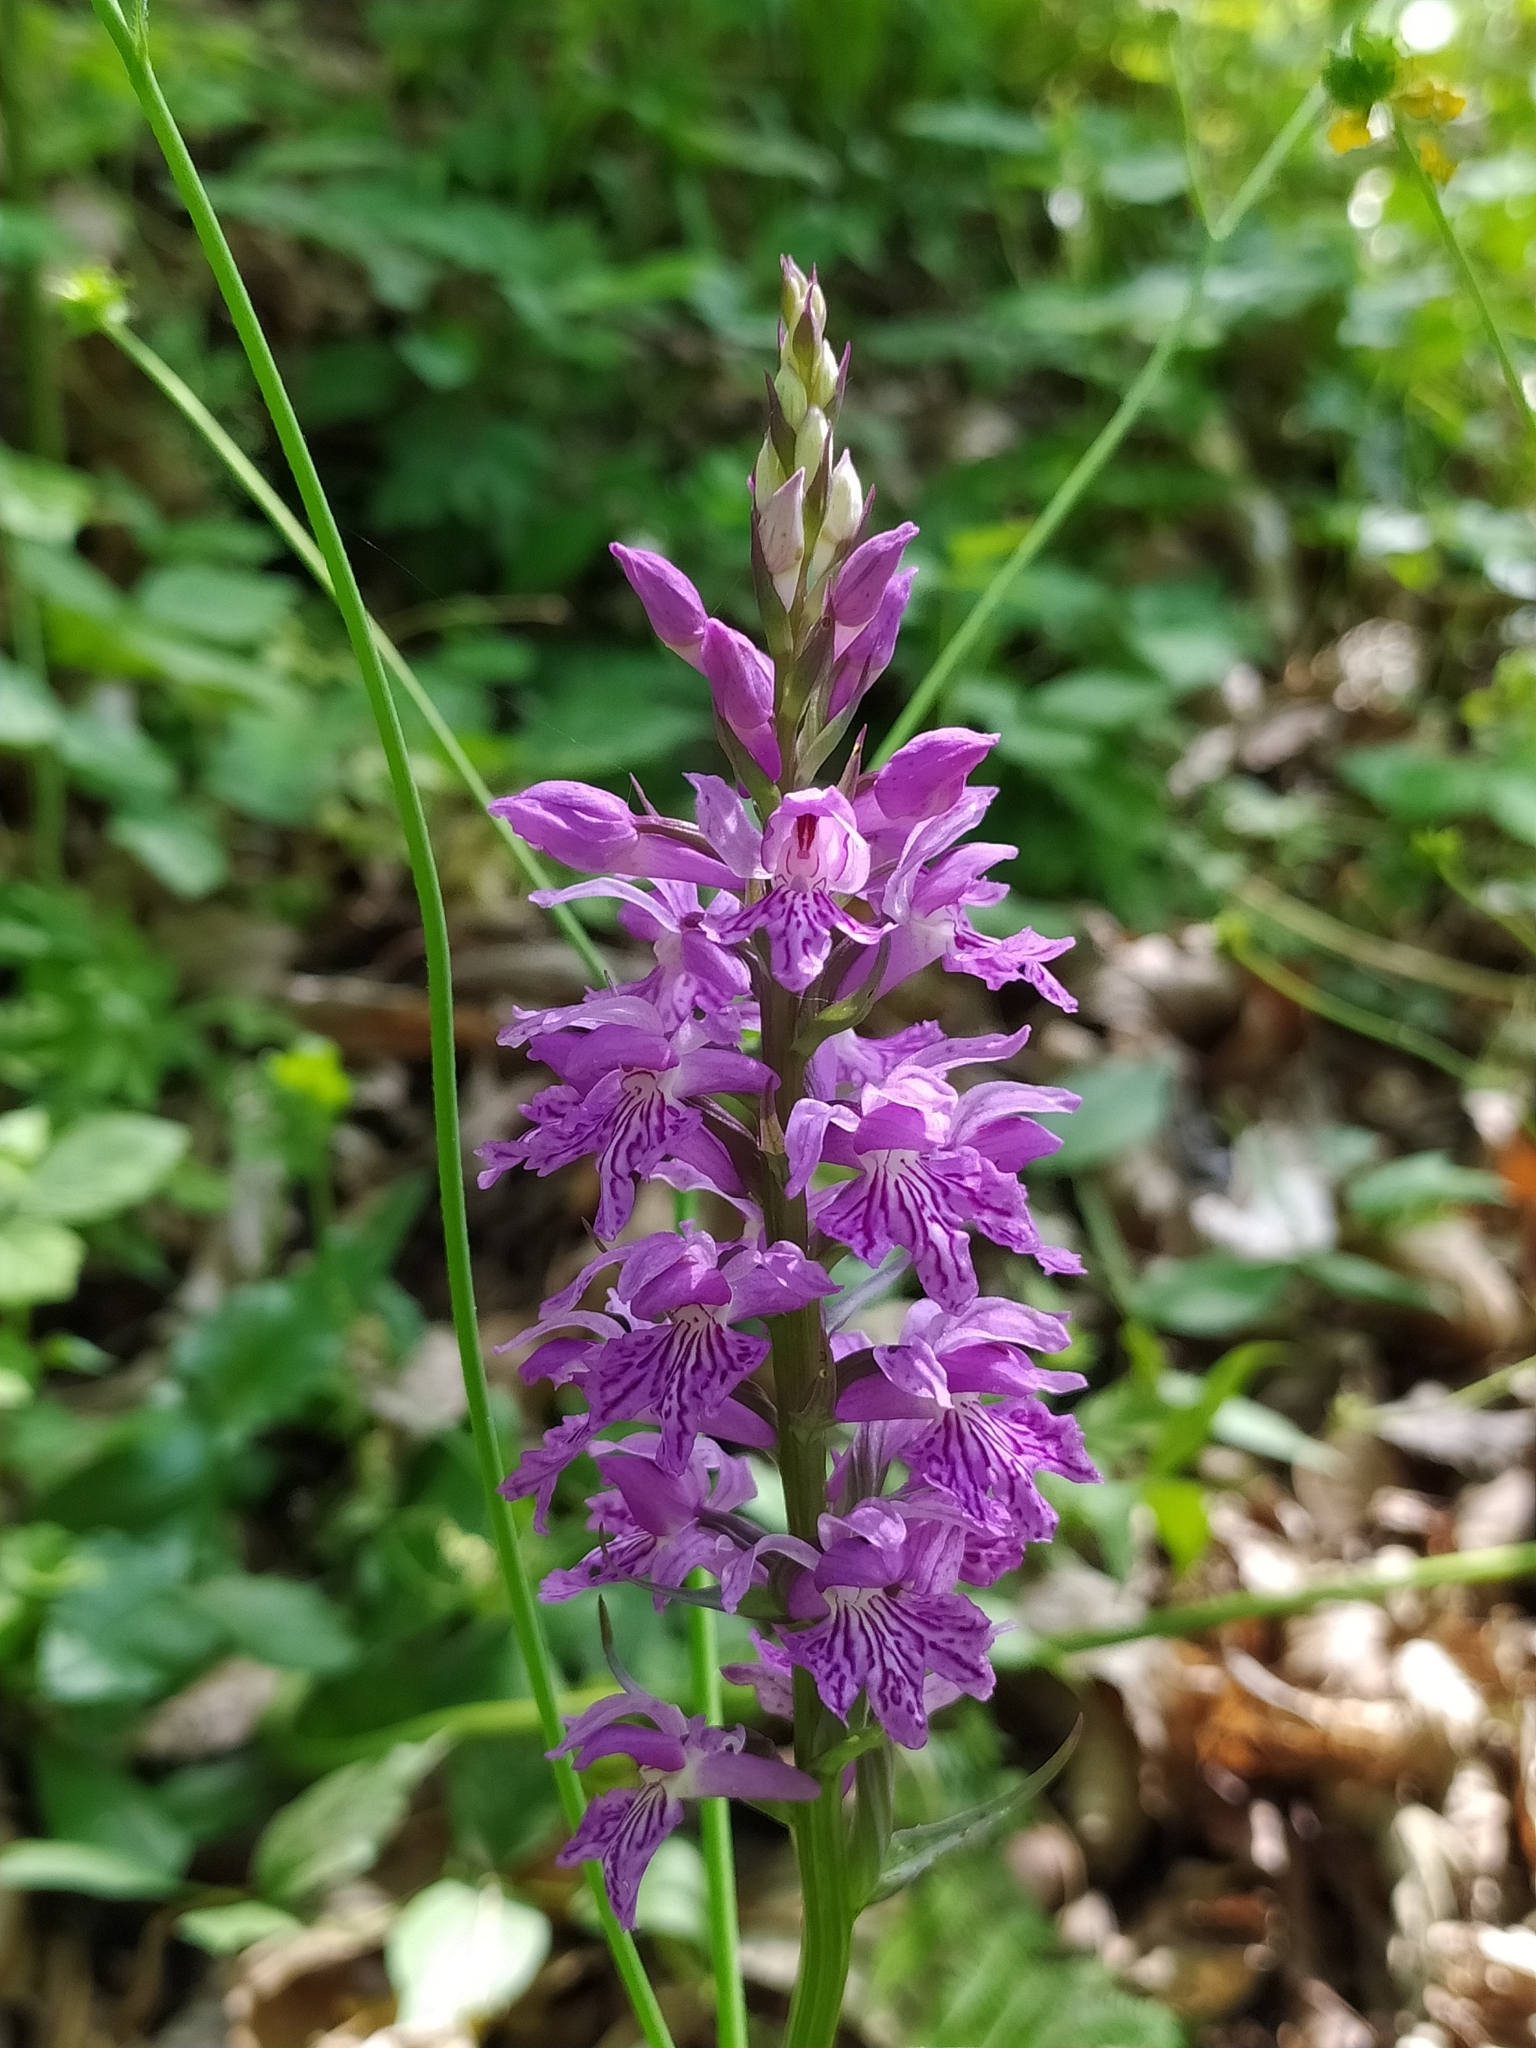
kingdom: Plantae
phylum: Tracheophyta
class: Liliopsida
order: Asparagales
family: Orchidaceae
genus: Dactylorhiza
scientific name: Dactylorhiza maculata
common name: Heath spotted-orchid
